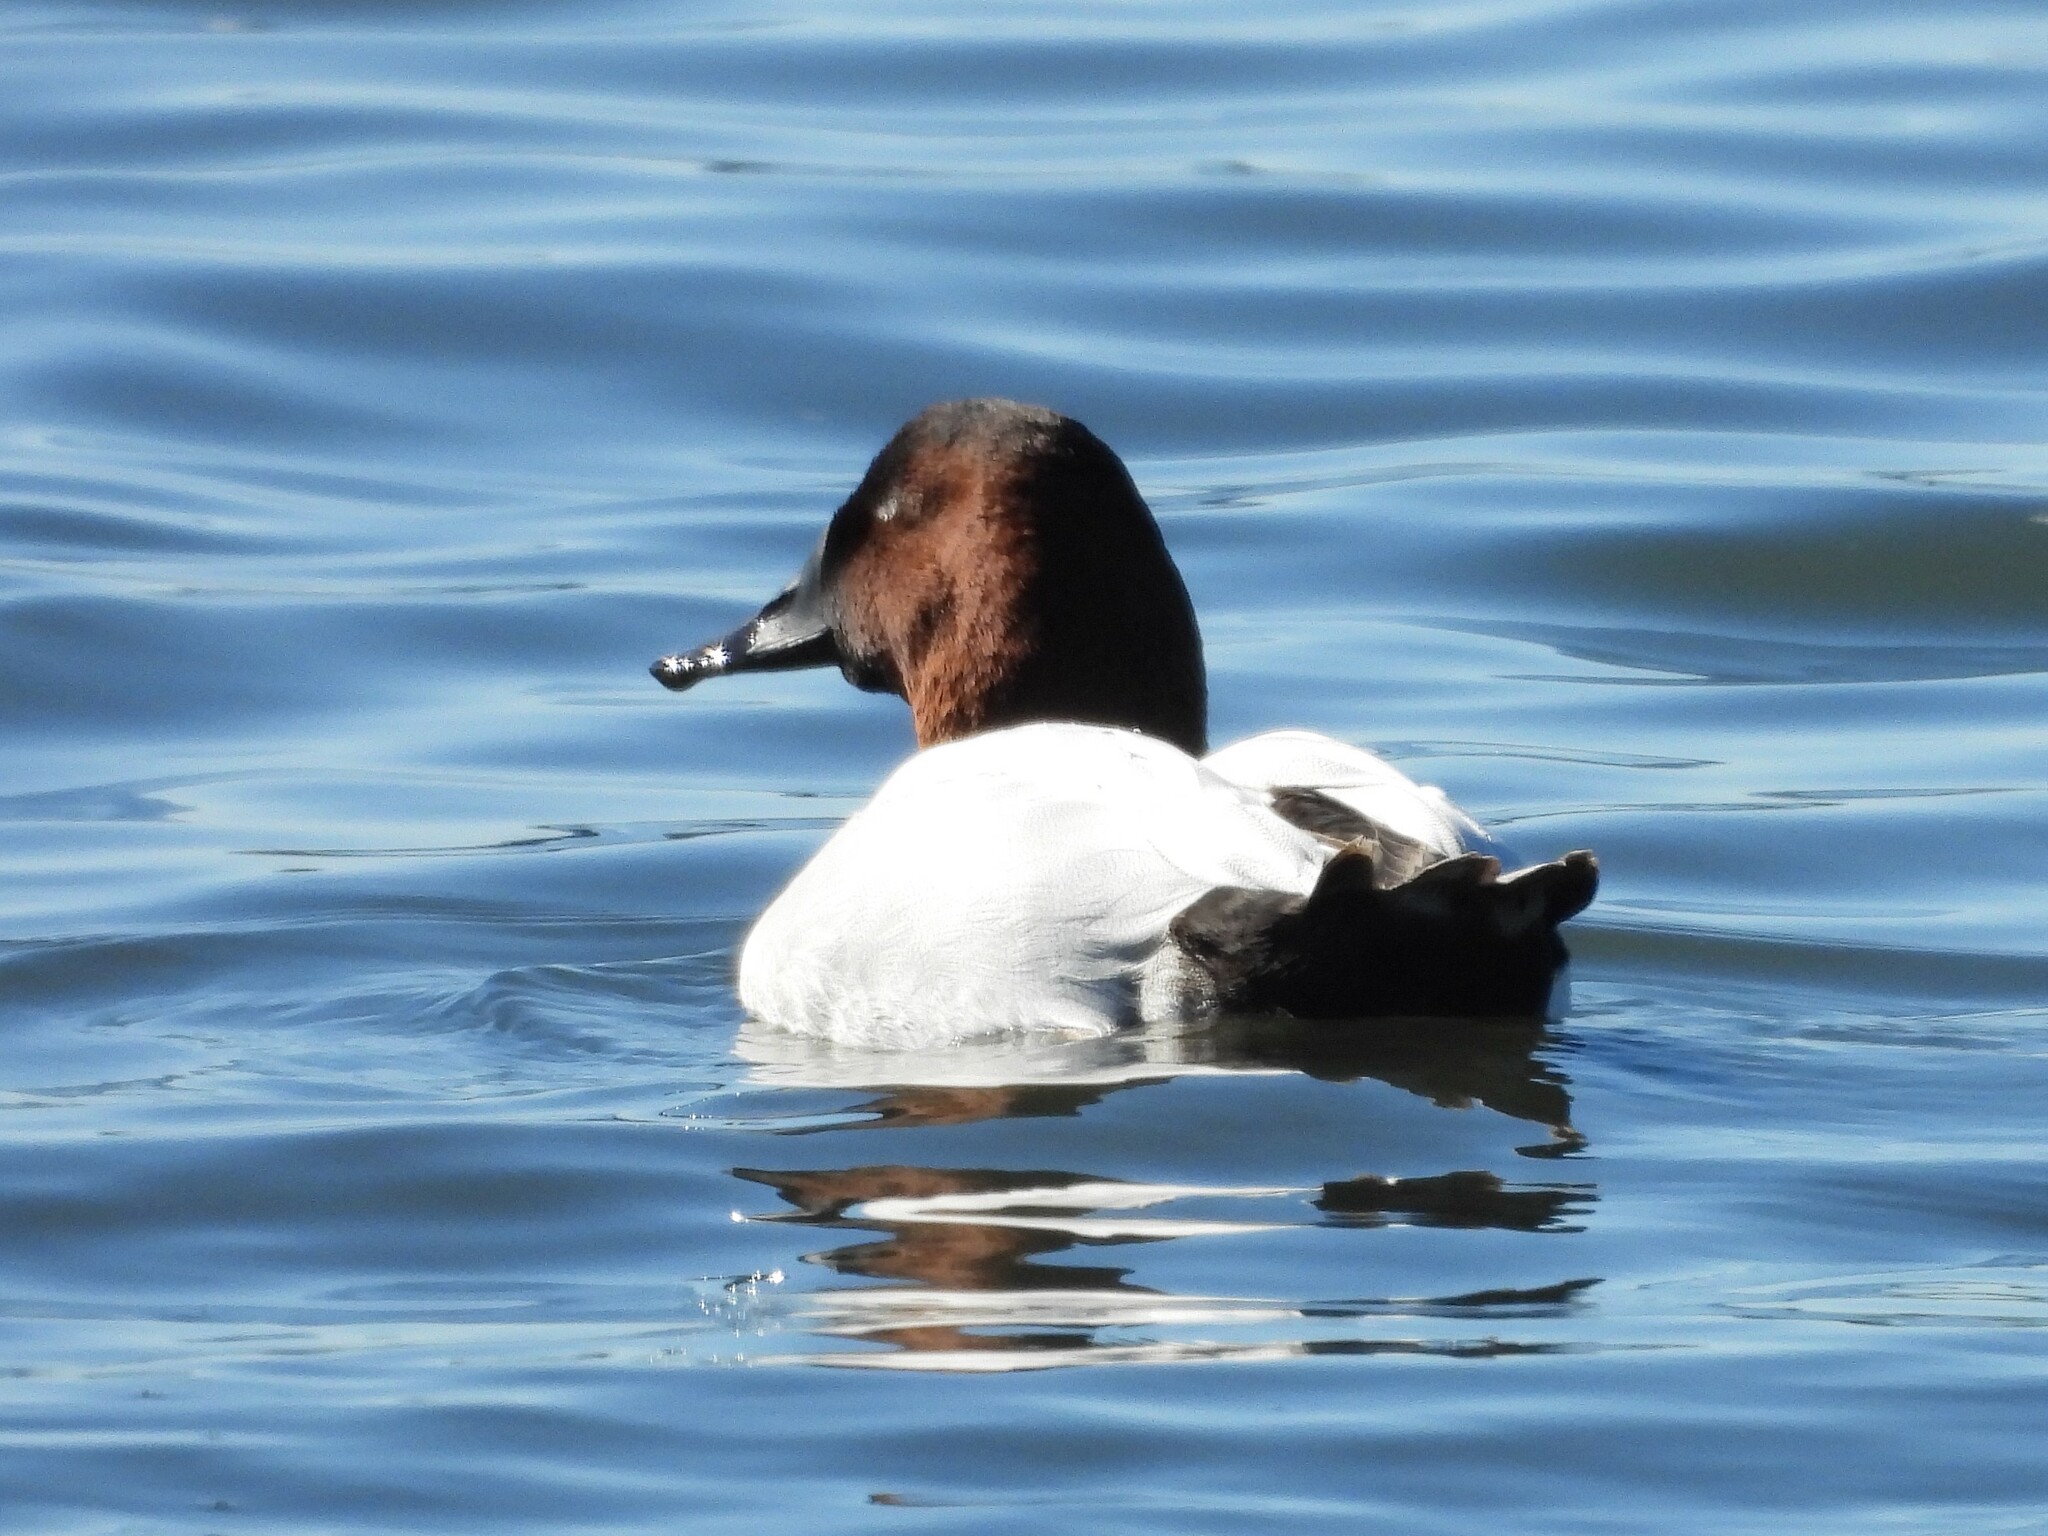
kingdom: Animalia
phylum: Chordata
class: Aves
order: Anseriformes
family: Anatidae
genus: Aythya
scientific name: Aythya valisineria
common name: Canvasback
